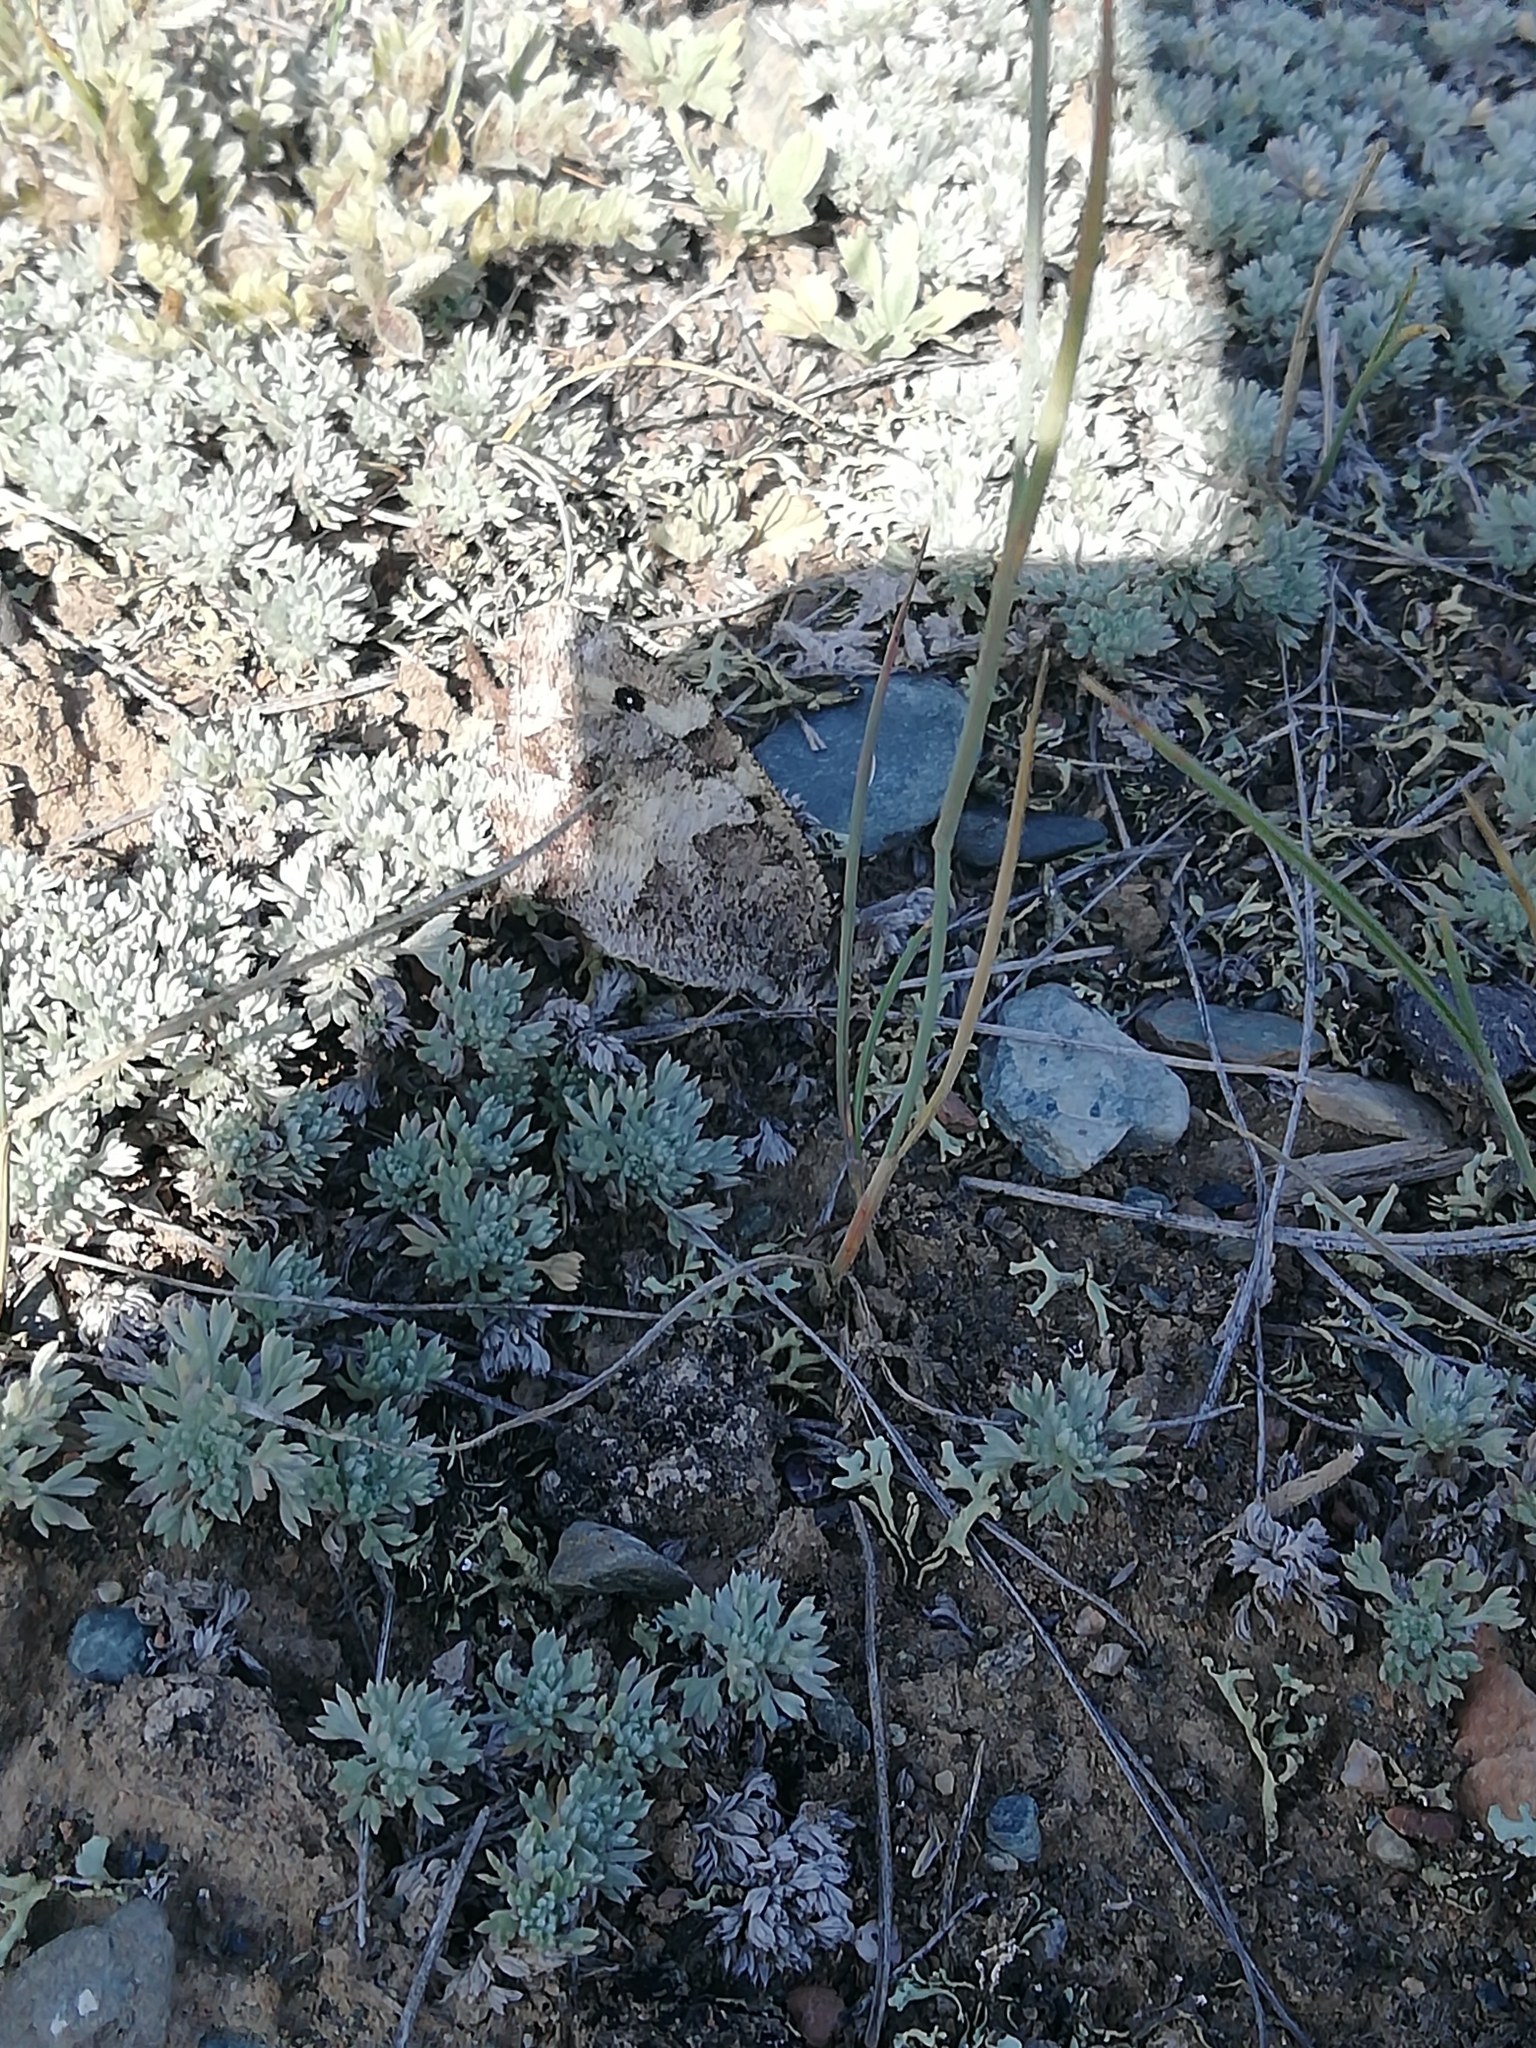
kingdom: Animalia
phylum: Arthropoda
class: Insecta
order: Lepidoptera
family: Nymphalidae
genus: Satyrus
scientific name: Satyrus briseis
